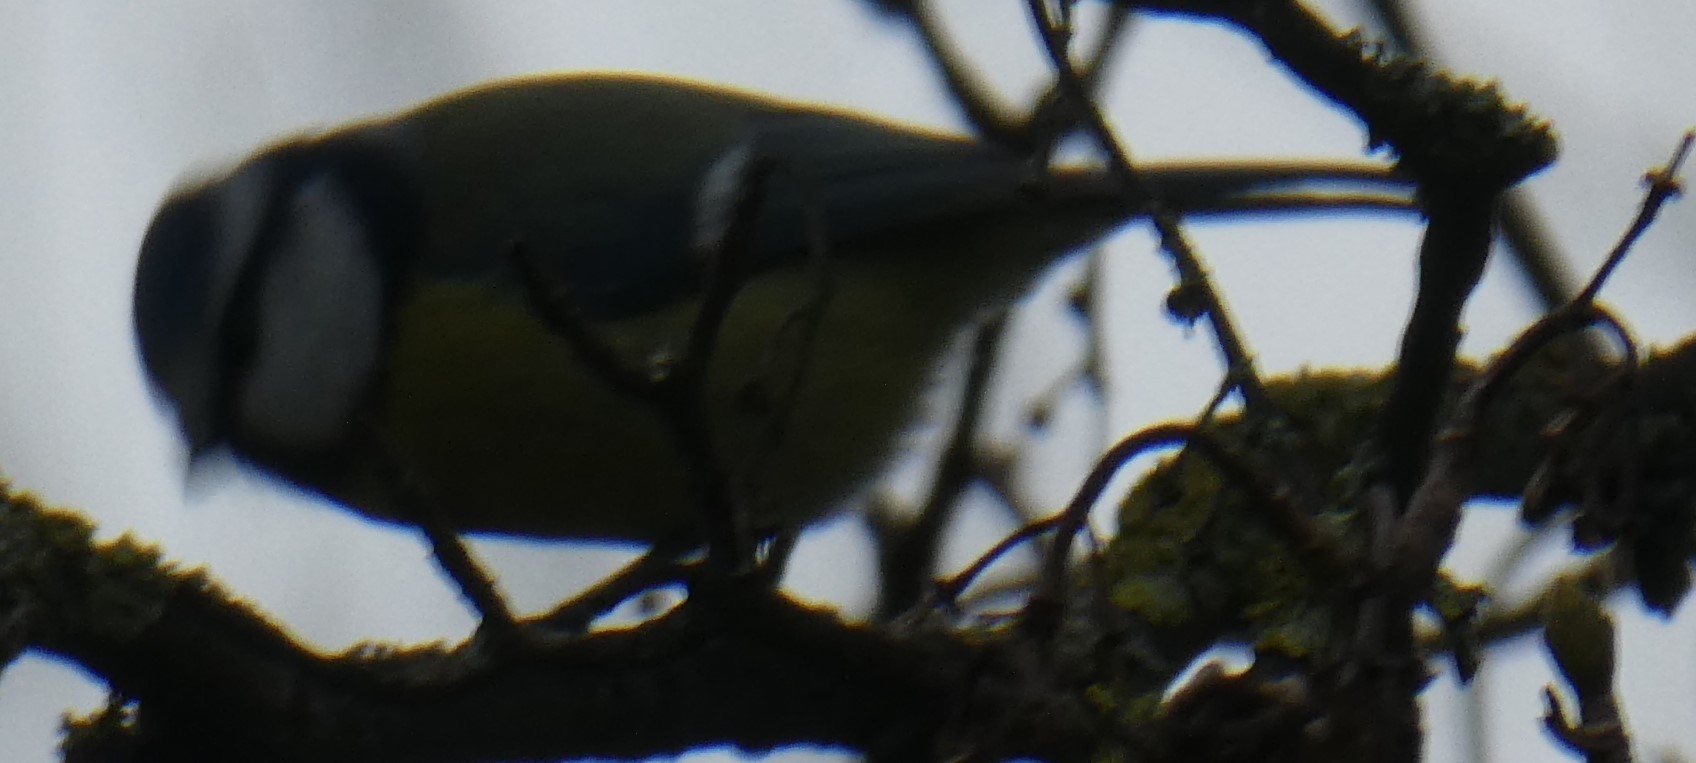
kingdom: Animalia
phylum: Chordata
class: Aves
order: Passeriformes
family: Paridae
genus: Cyanistes
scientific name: Cyanistes caeruleus
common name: Eurasian blue tit
